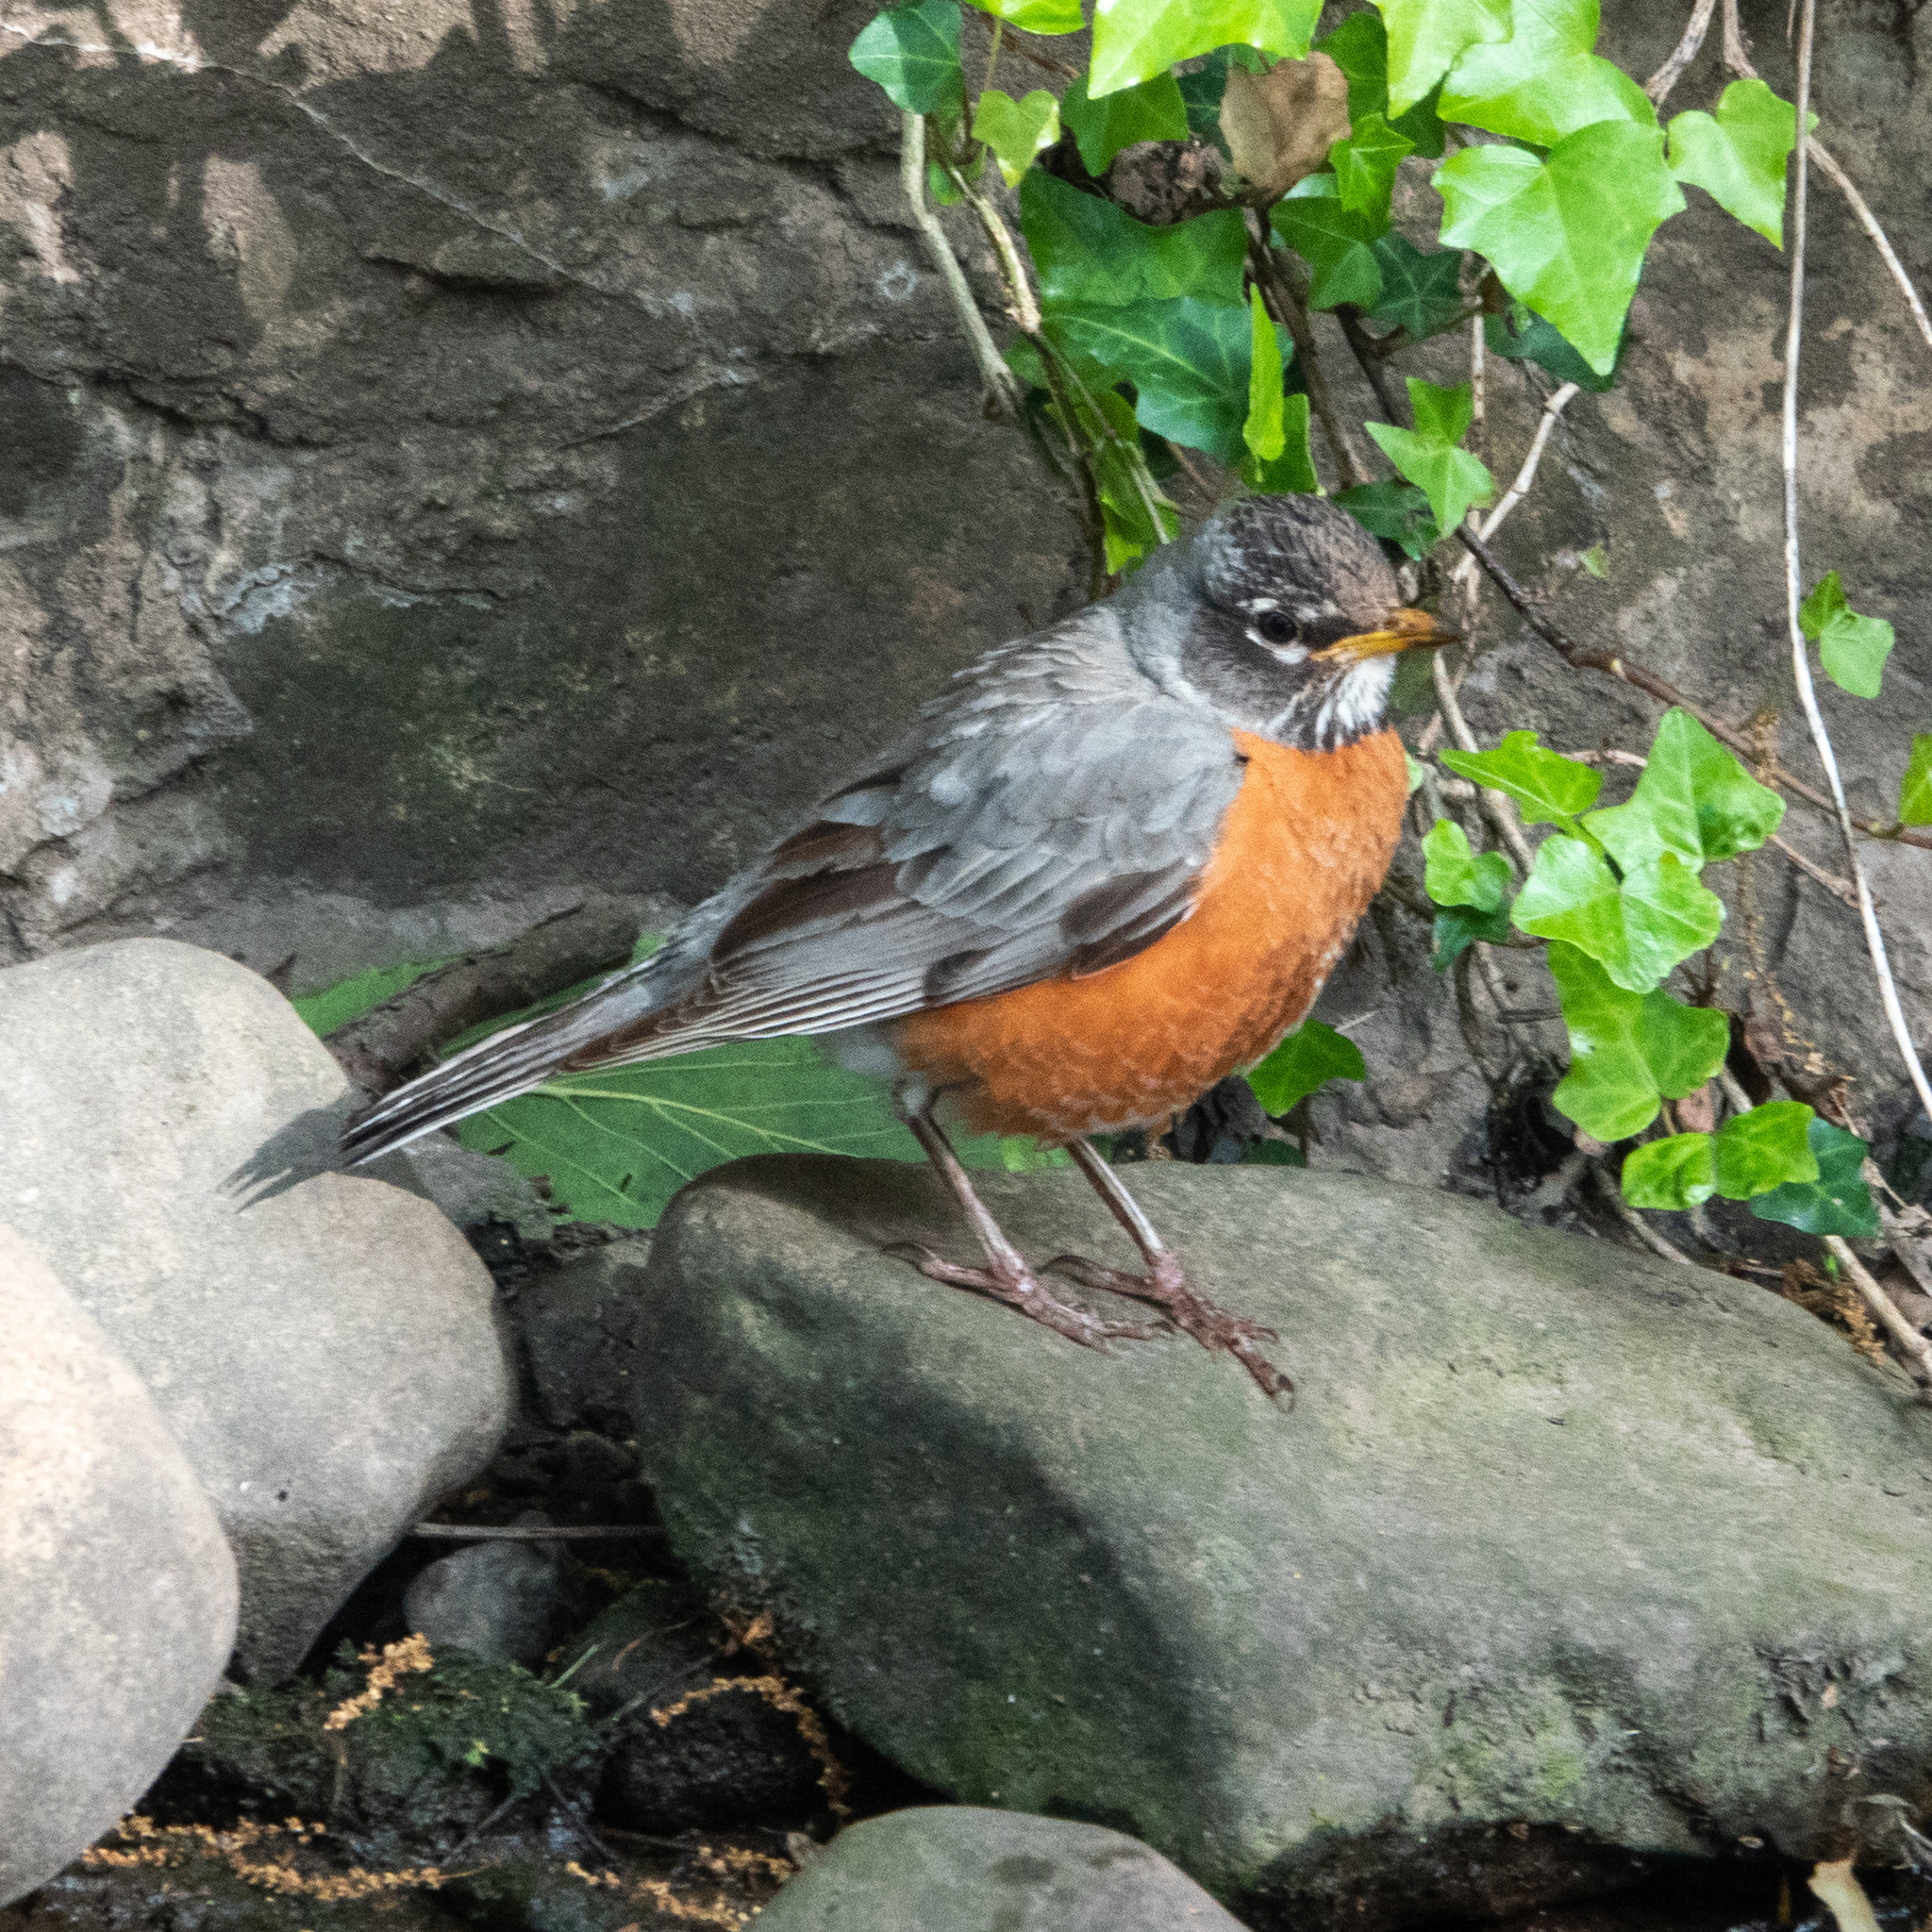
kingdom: Animalia
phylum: Chordata
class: Aves
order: Passeriformes
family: Turdidae
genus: Turdus
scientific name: Turdus migratorius
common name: American robin
